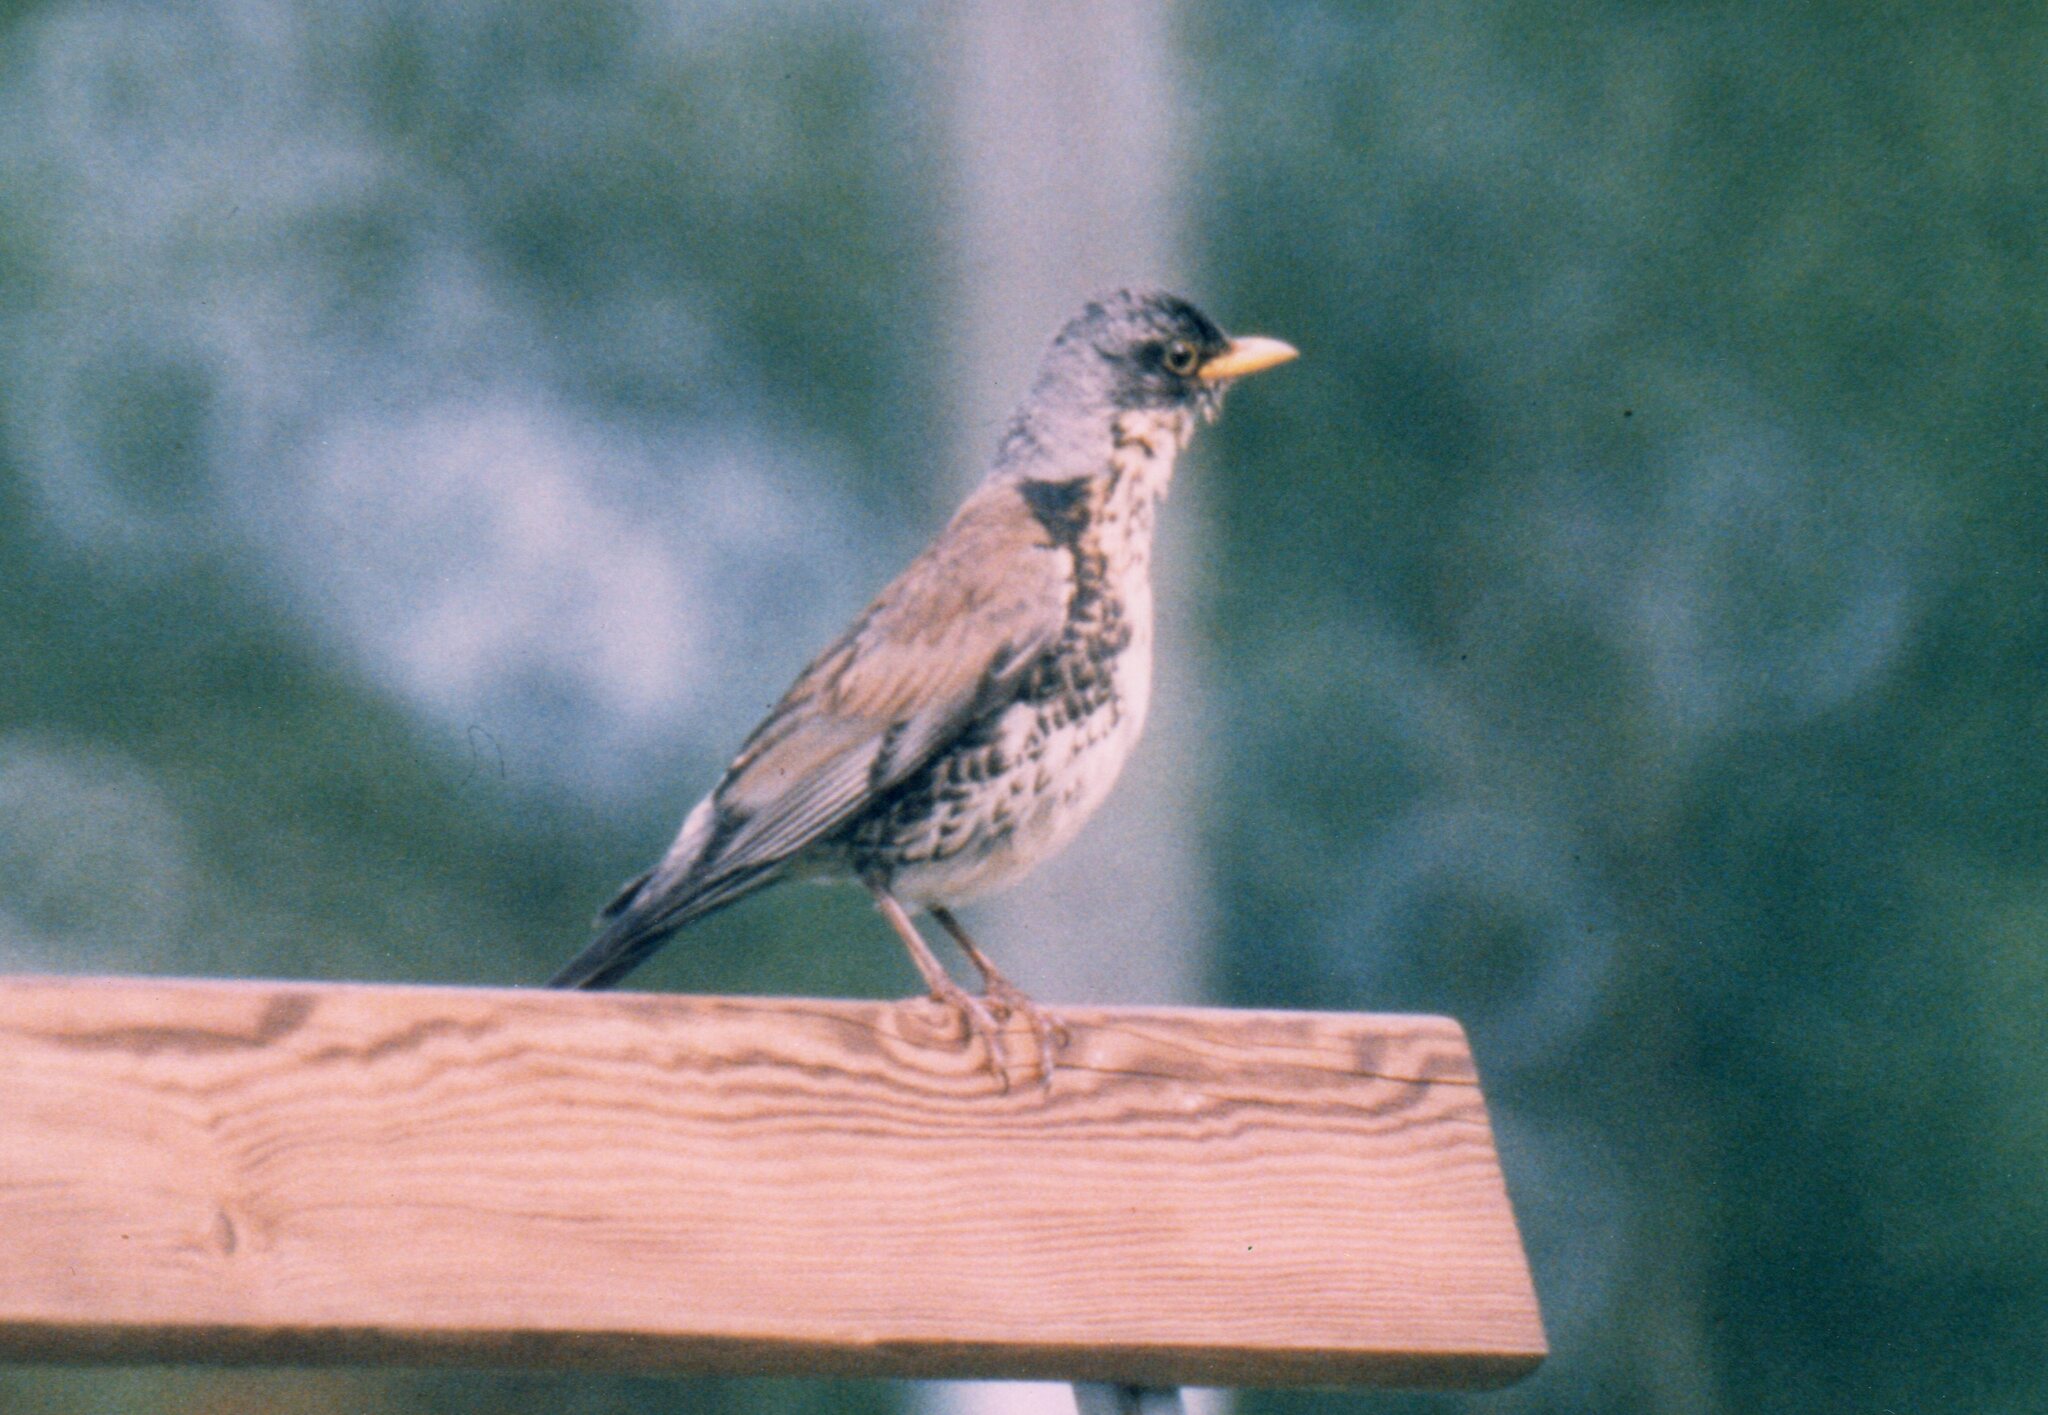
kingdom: Animalia
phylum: Chordata
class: Aves
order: Passeriformes
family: Turdidae
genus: Turdus
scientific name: Turdus pilaris
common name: Fieldfare
